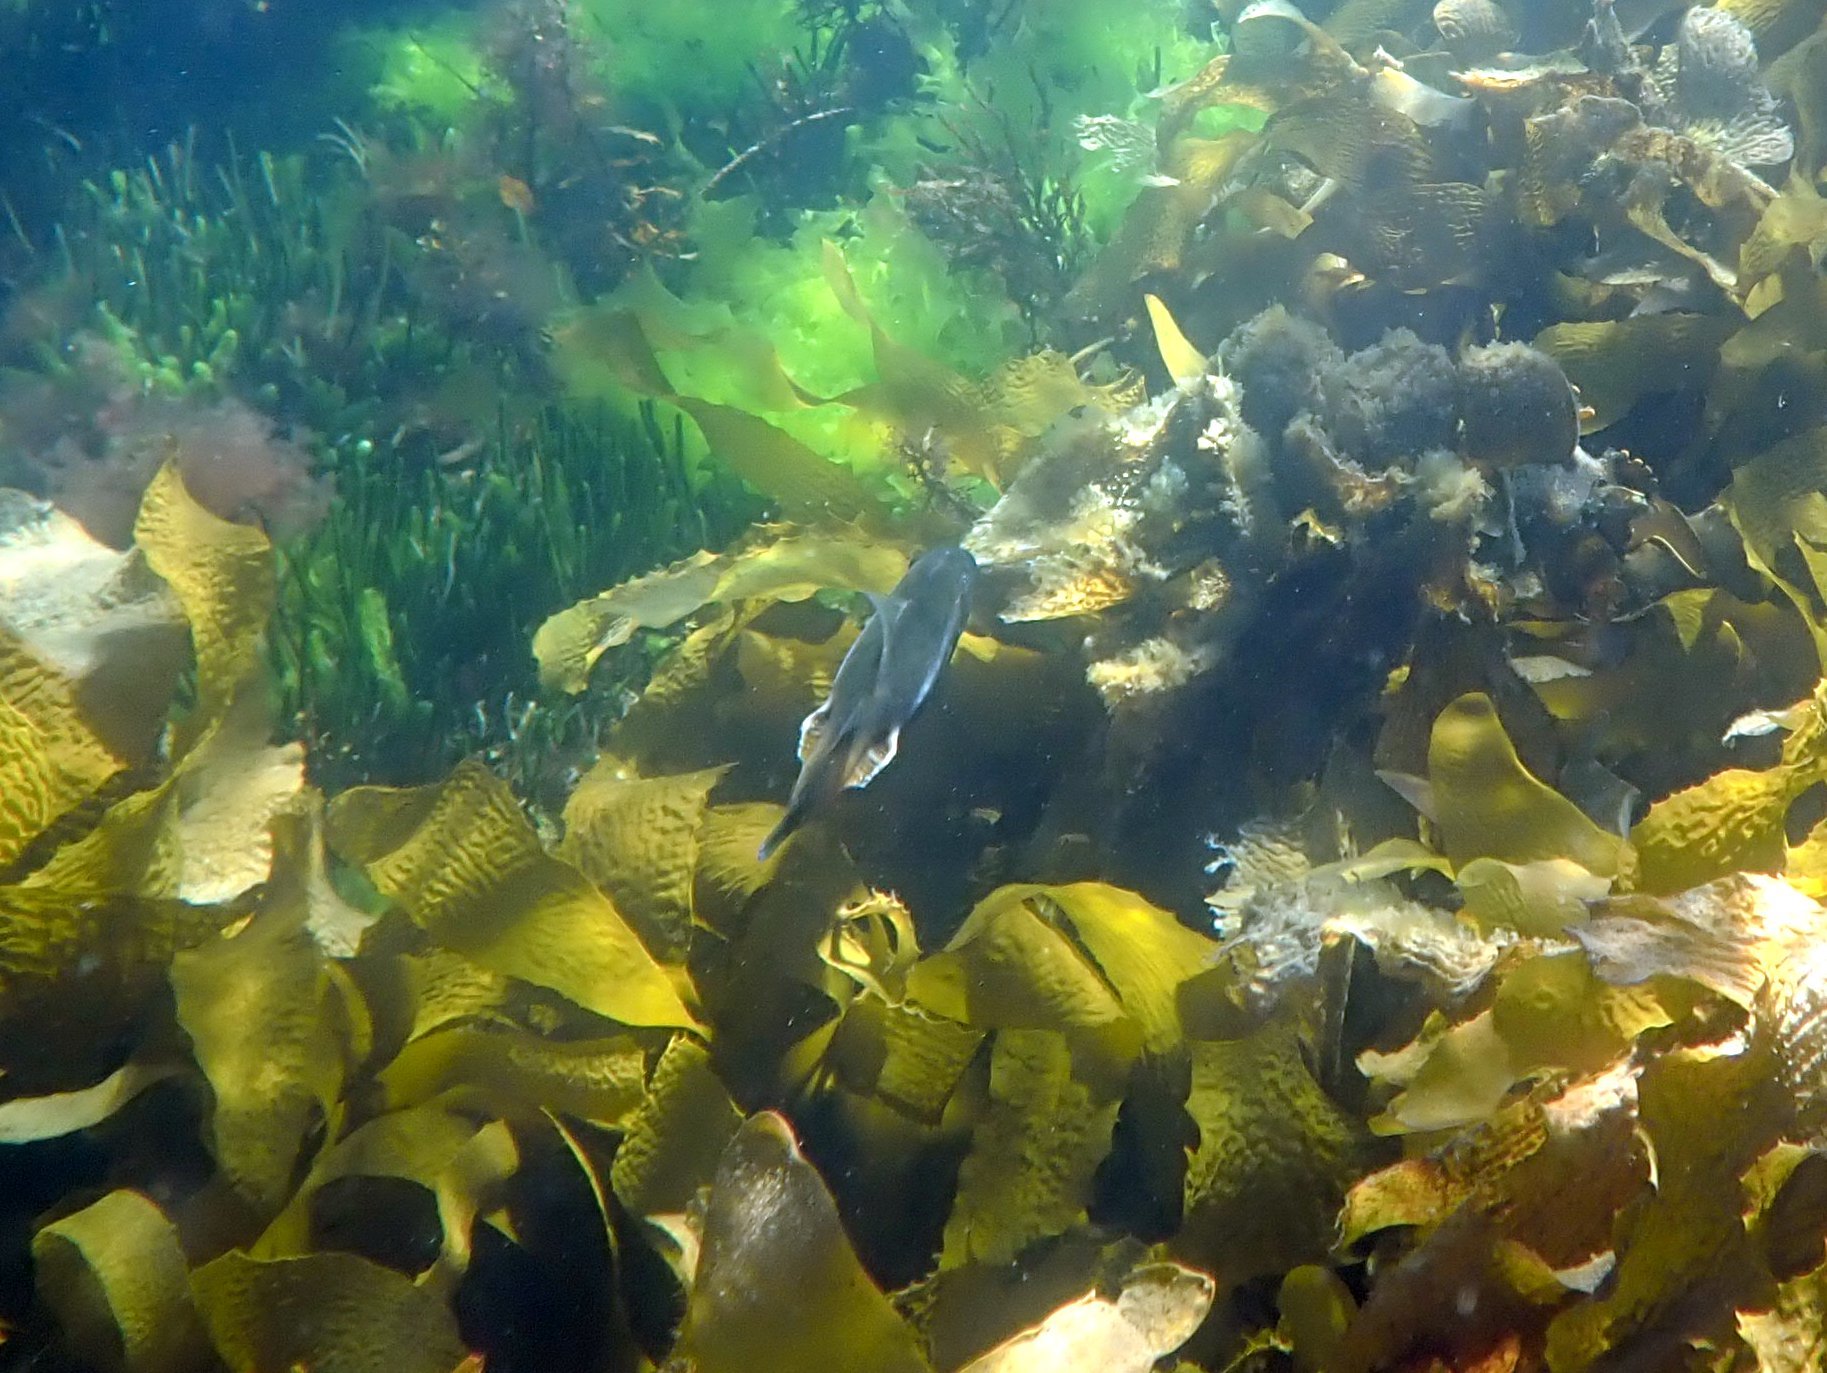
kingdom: Animalia
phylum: Chordata
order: Tetraodontiformes
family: Monacanthidae
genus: Acanthaluteres
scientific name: Acanthaluteres vittiger
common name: Brown leatherjacket
